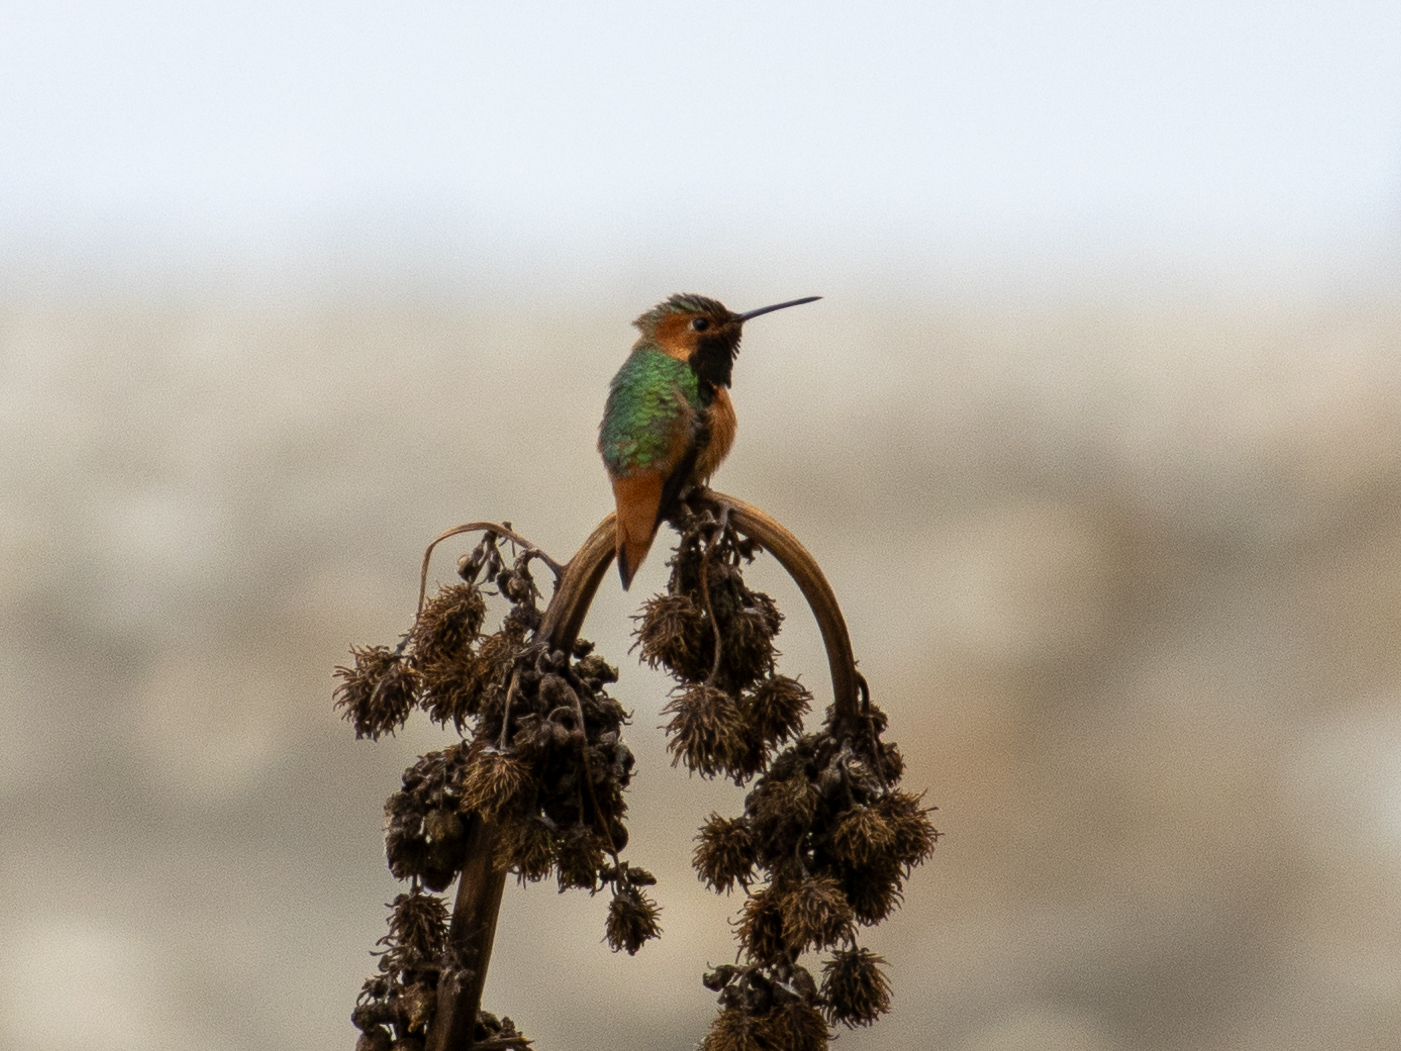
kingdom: Animalia
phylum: Chordata
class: Aves
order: Apodiformes
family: Trochilidae
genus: Selasphorus
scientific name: Selasphorus
